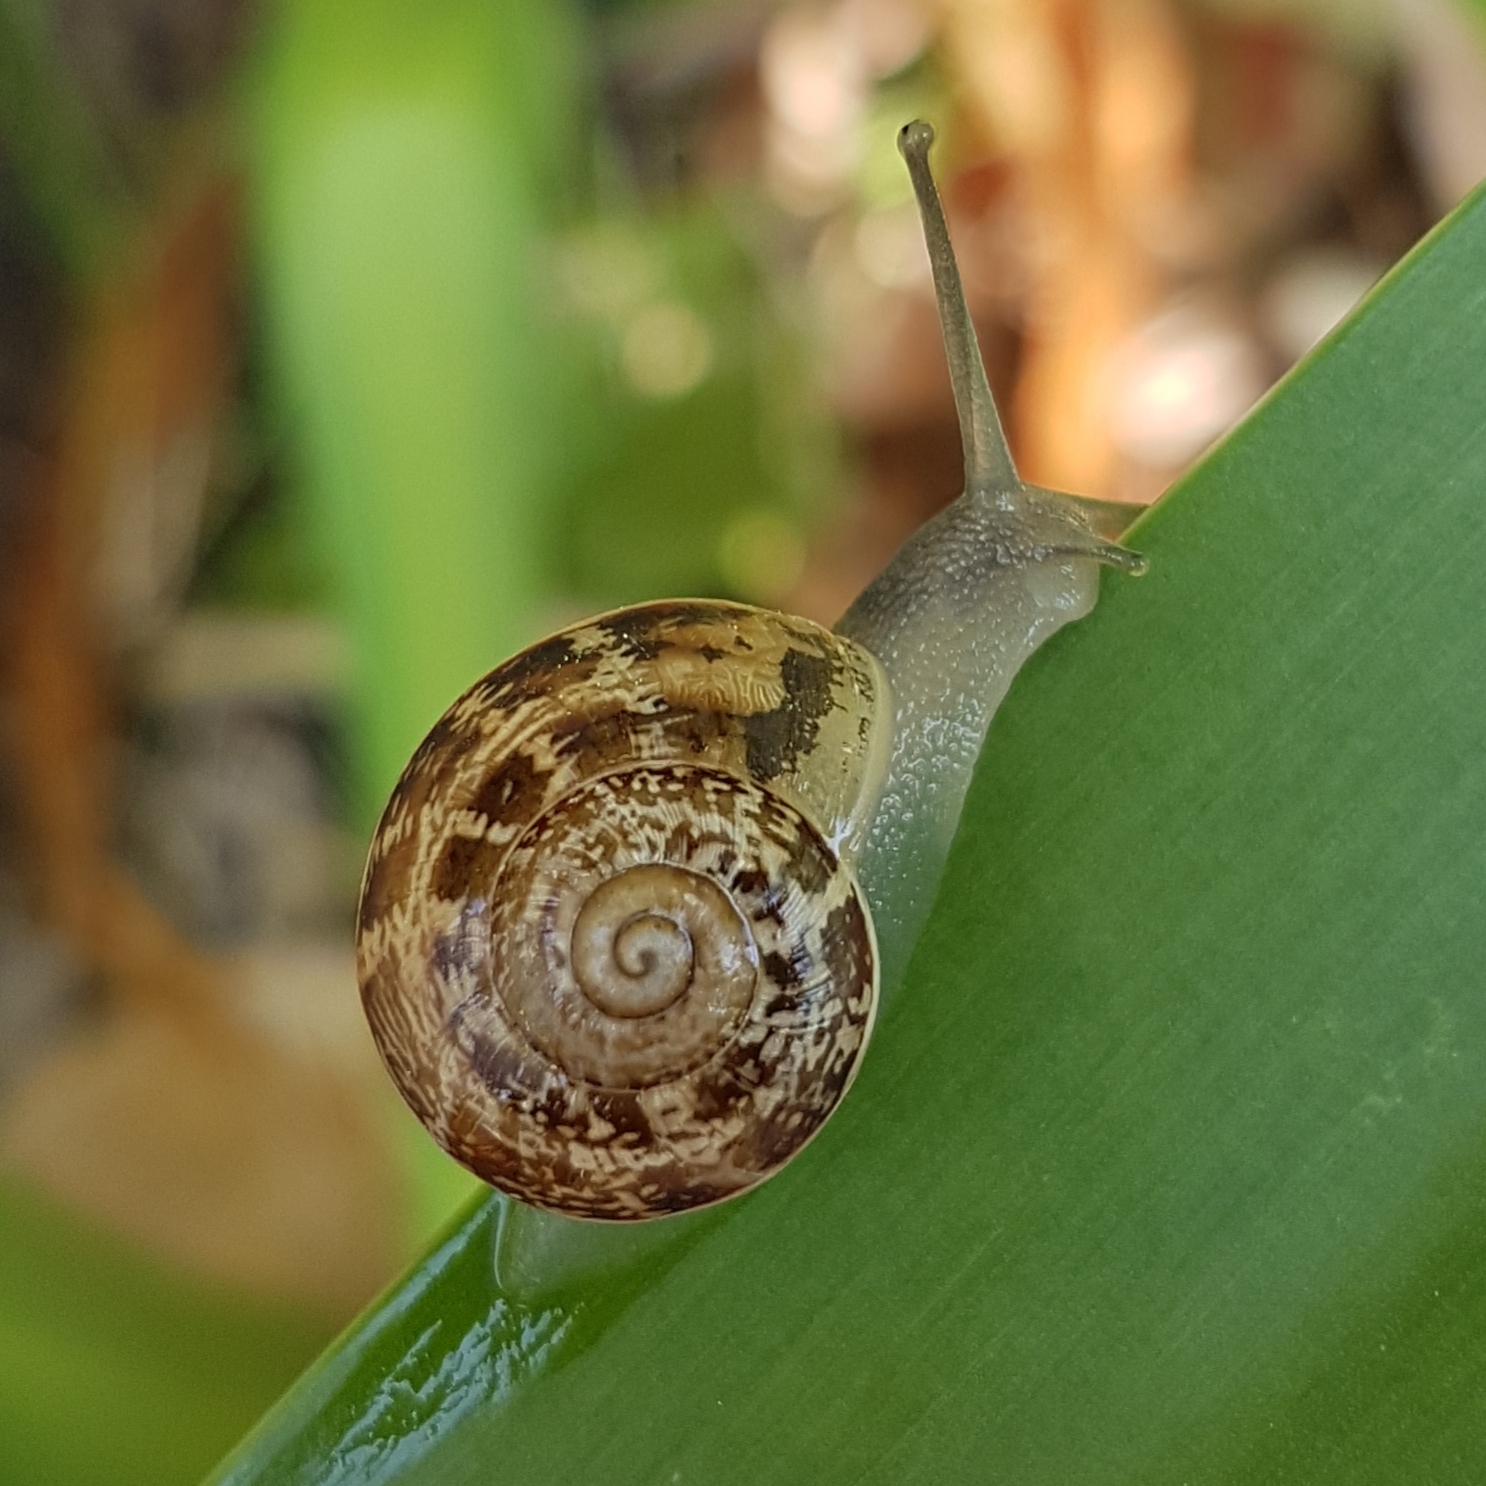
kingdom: Animalia
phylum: Mollusca
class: Gastropoda
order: Stylommatophora
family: Helicidae
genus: Eobania
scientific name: Eobania vermiculata
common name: Chocolateband snail
